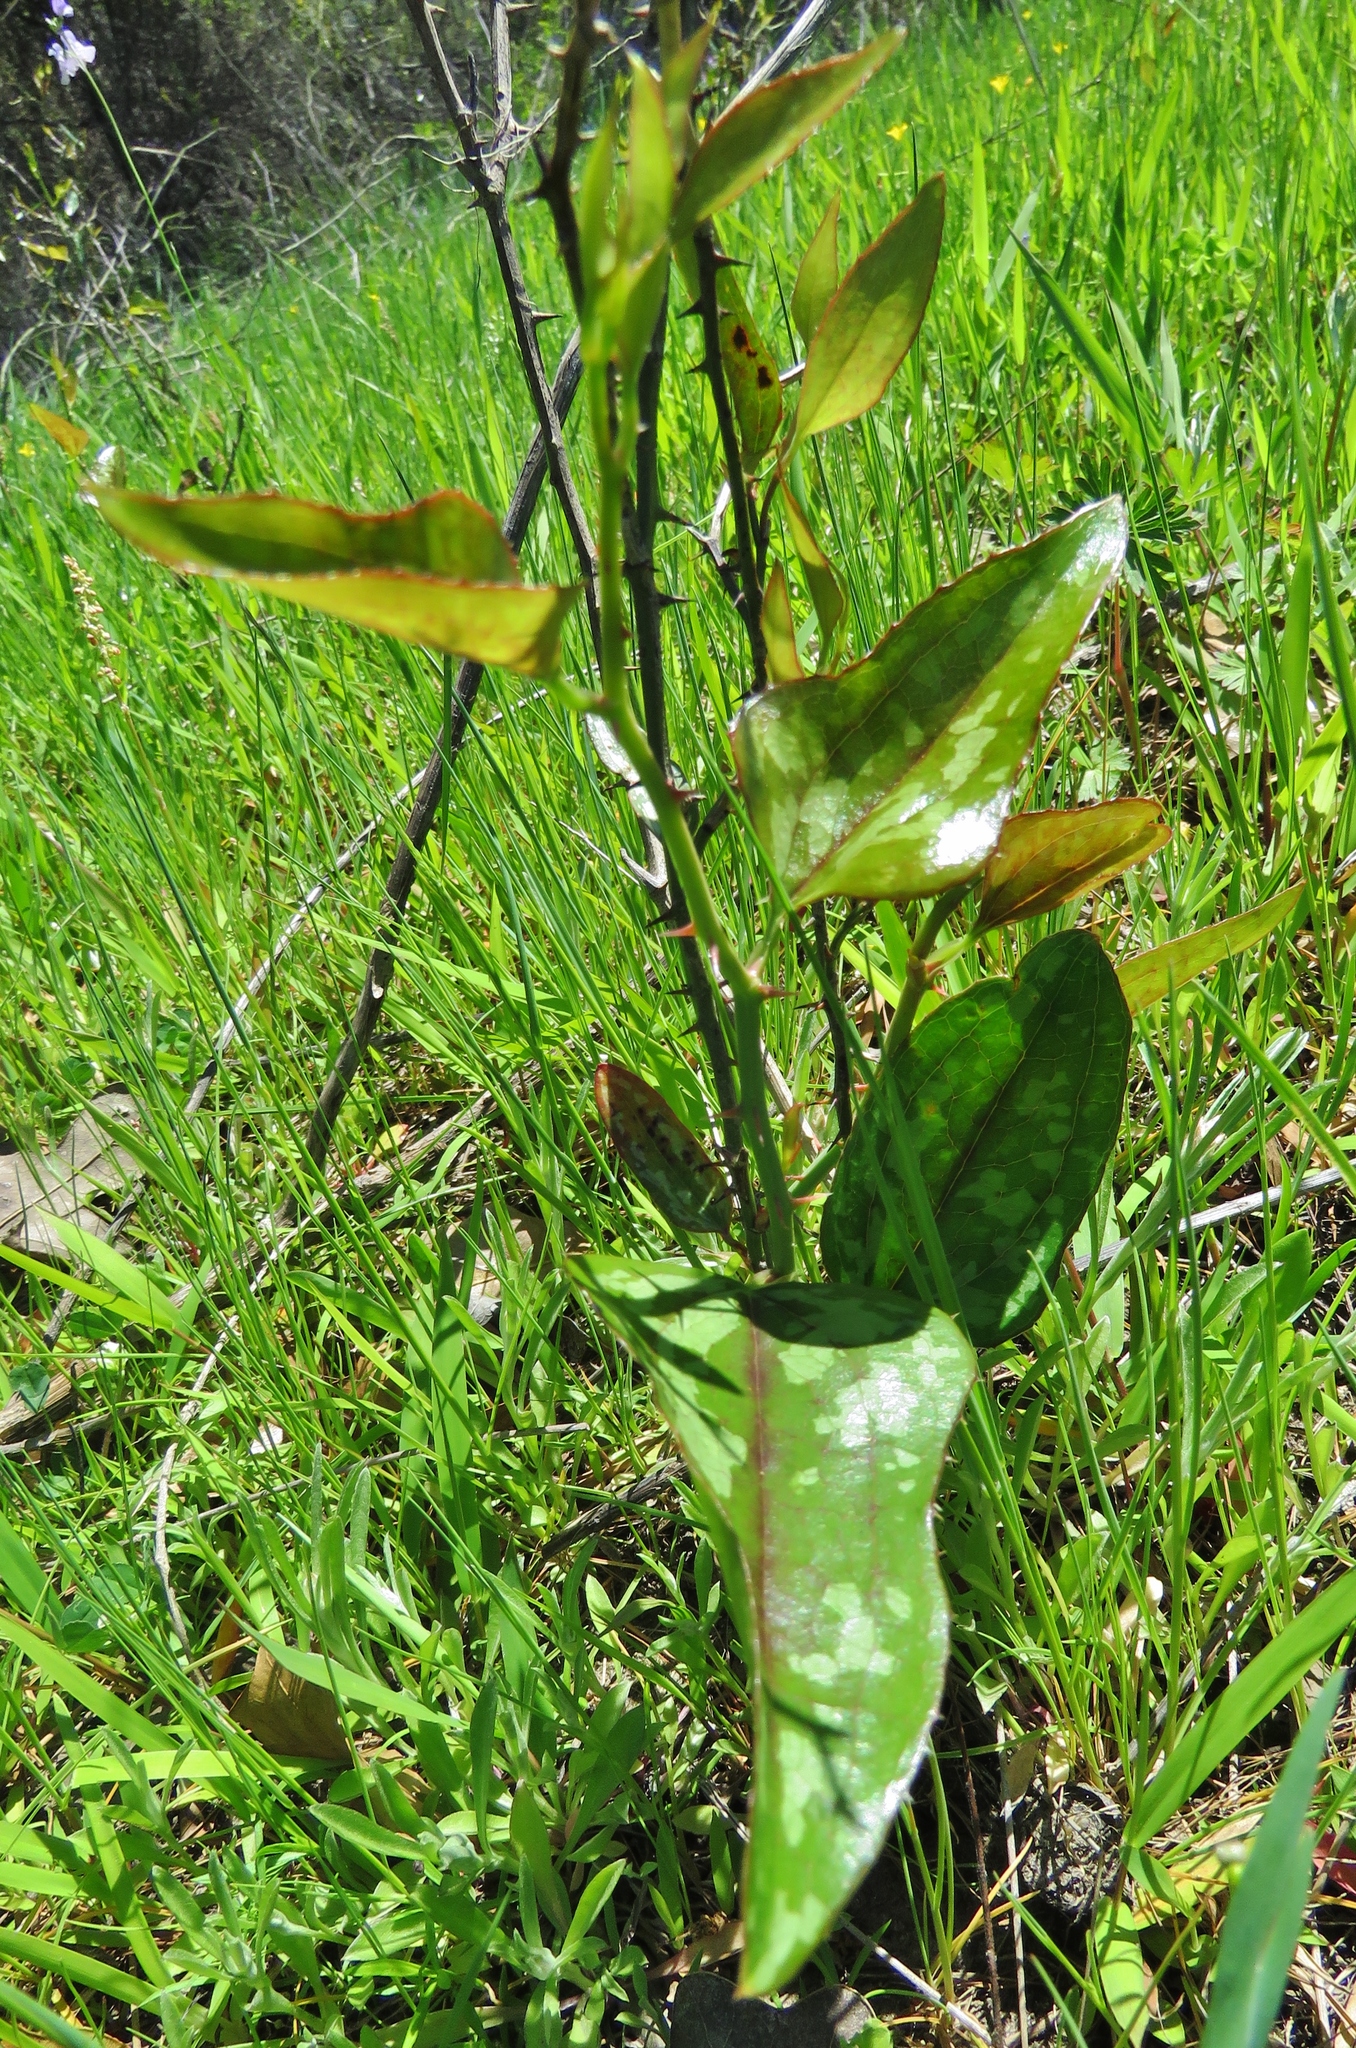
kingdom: Plantae
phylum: Tracheophyta
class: Liliopsida
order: Liliales
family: Smilacaceae
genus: Smilax
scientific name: Smilax bona-nox
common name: Catbrier
